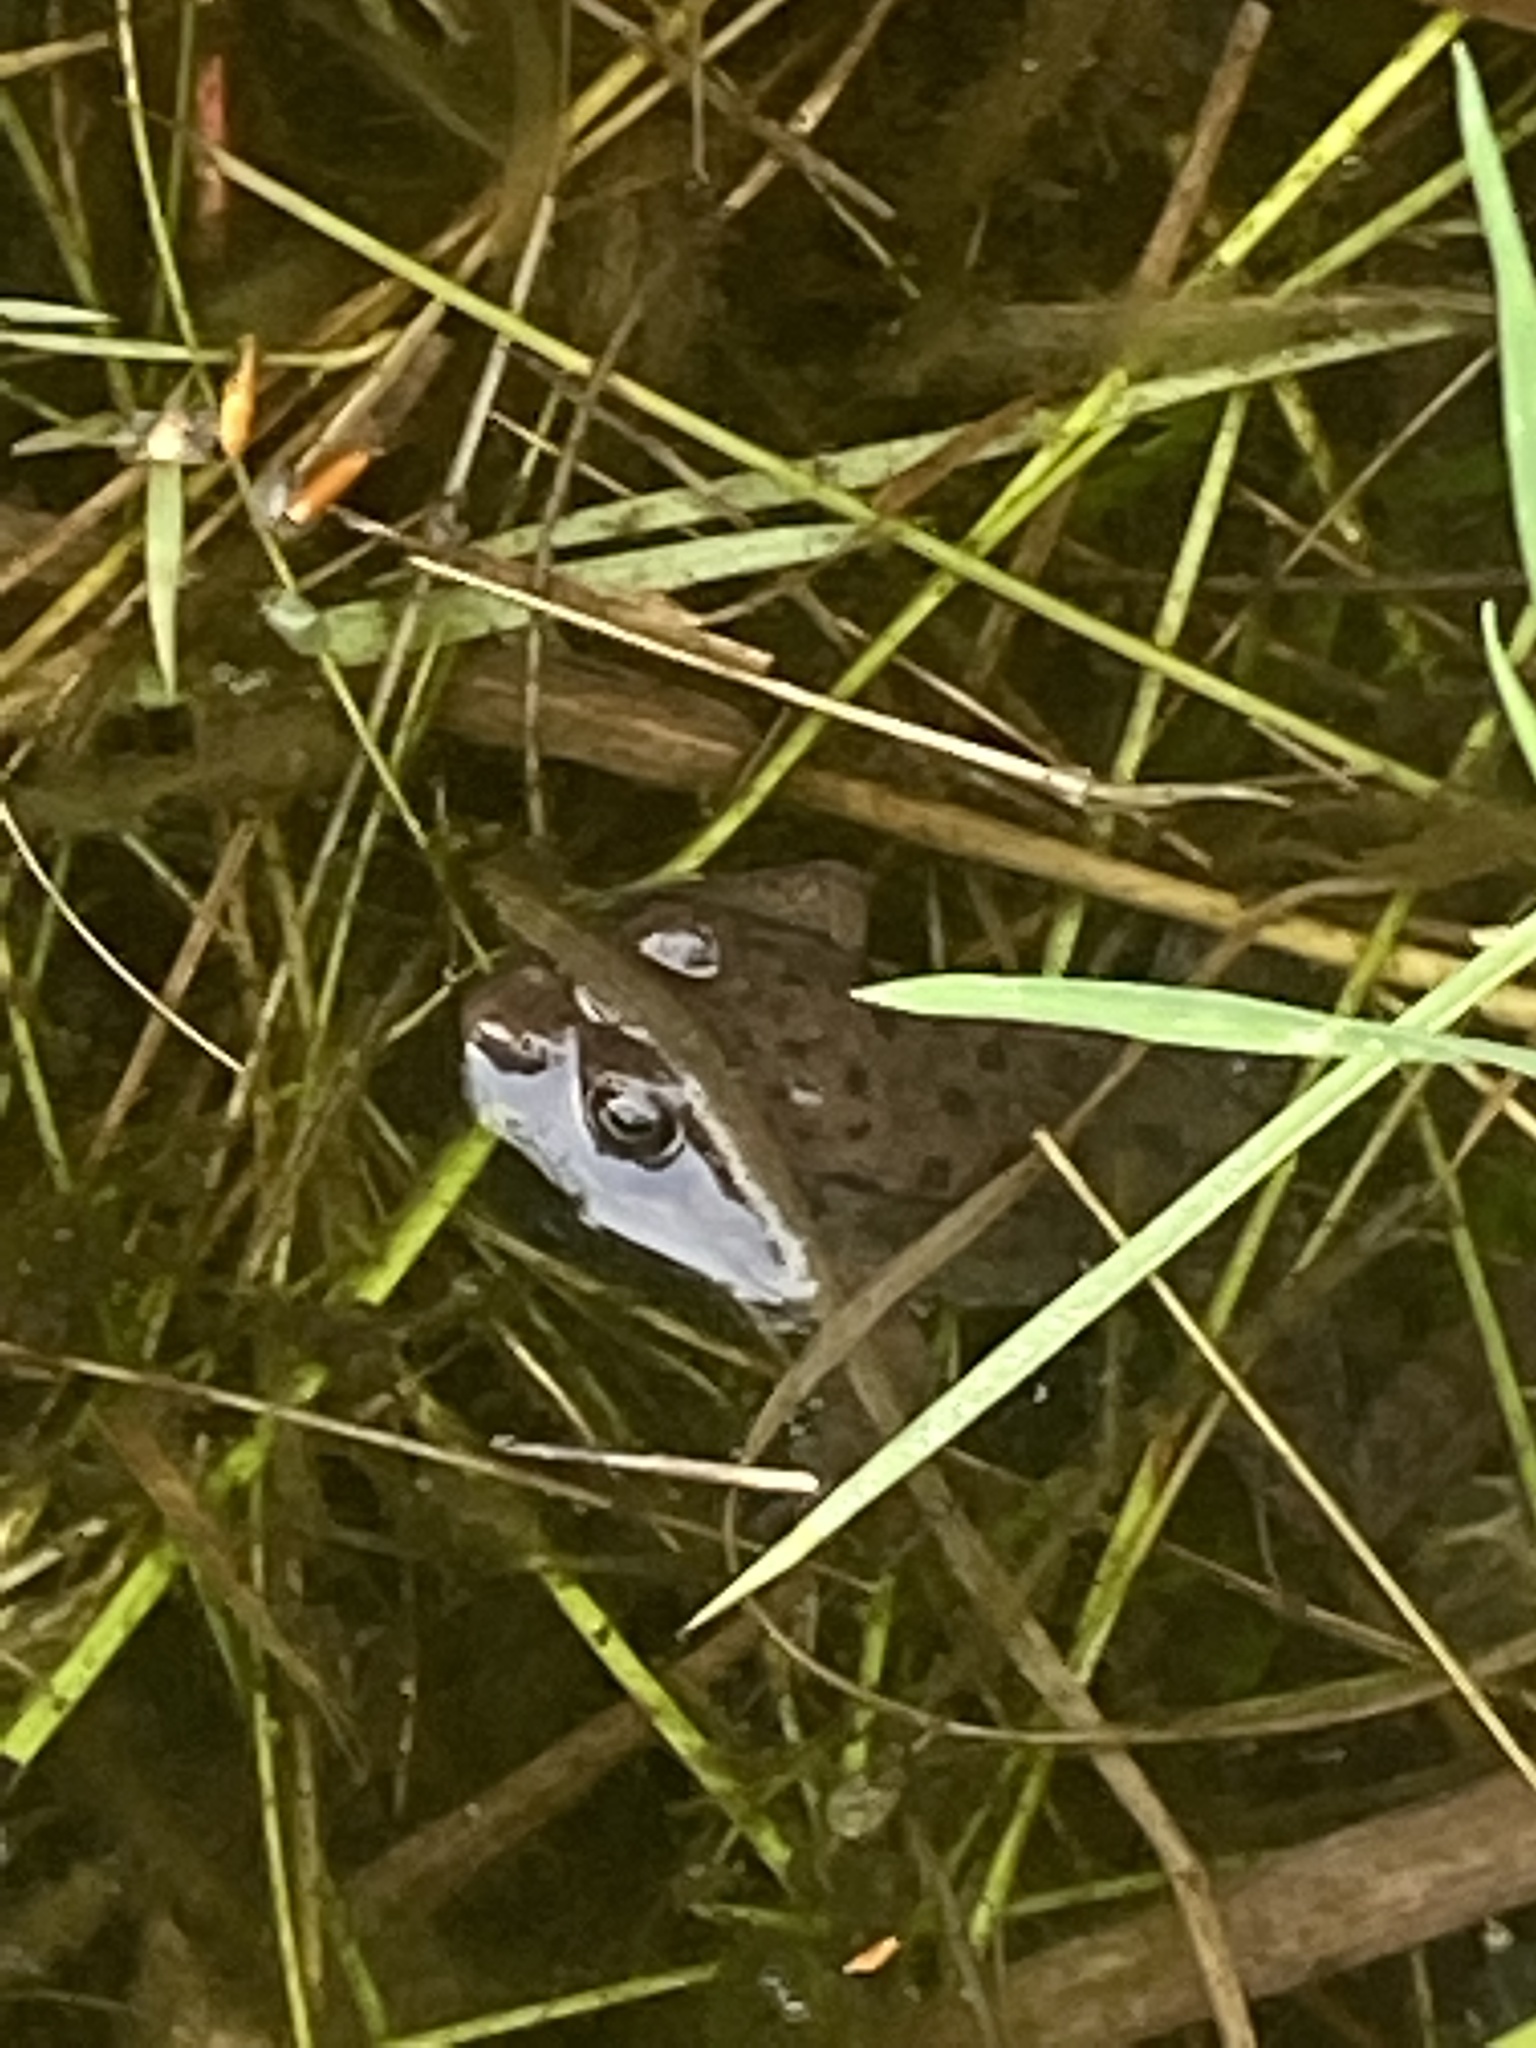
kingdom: Animalia
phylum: Chordata
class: Amphibia
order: Anura
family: Ranidae
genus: Lithobates
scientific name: Lithobates clamitans
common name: Green frog
